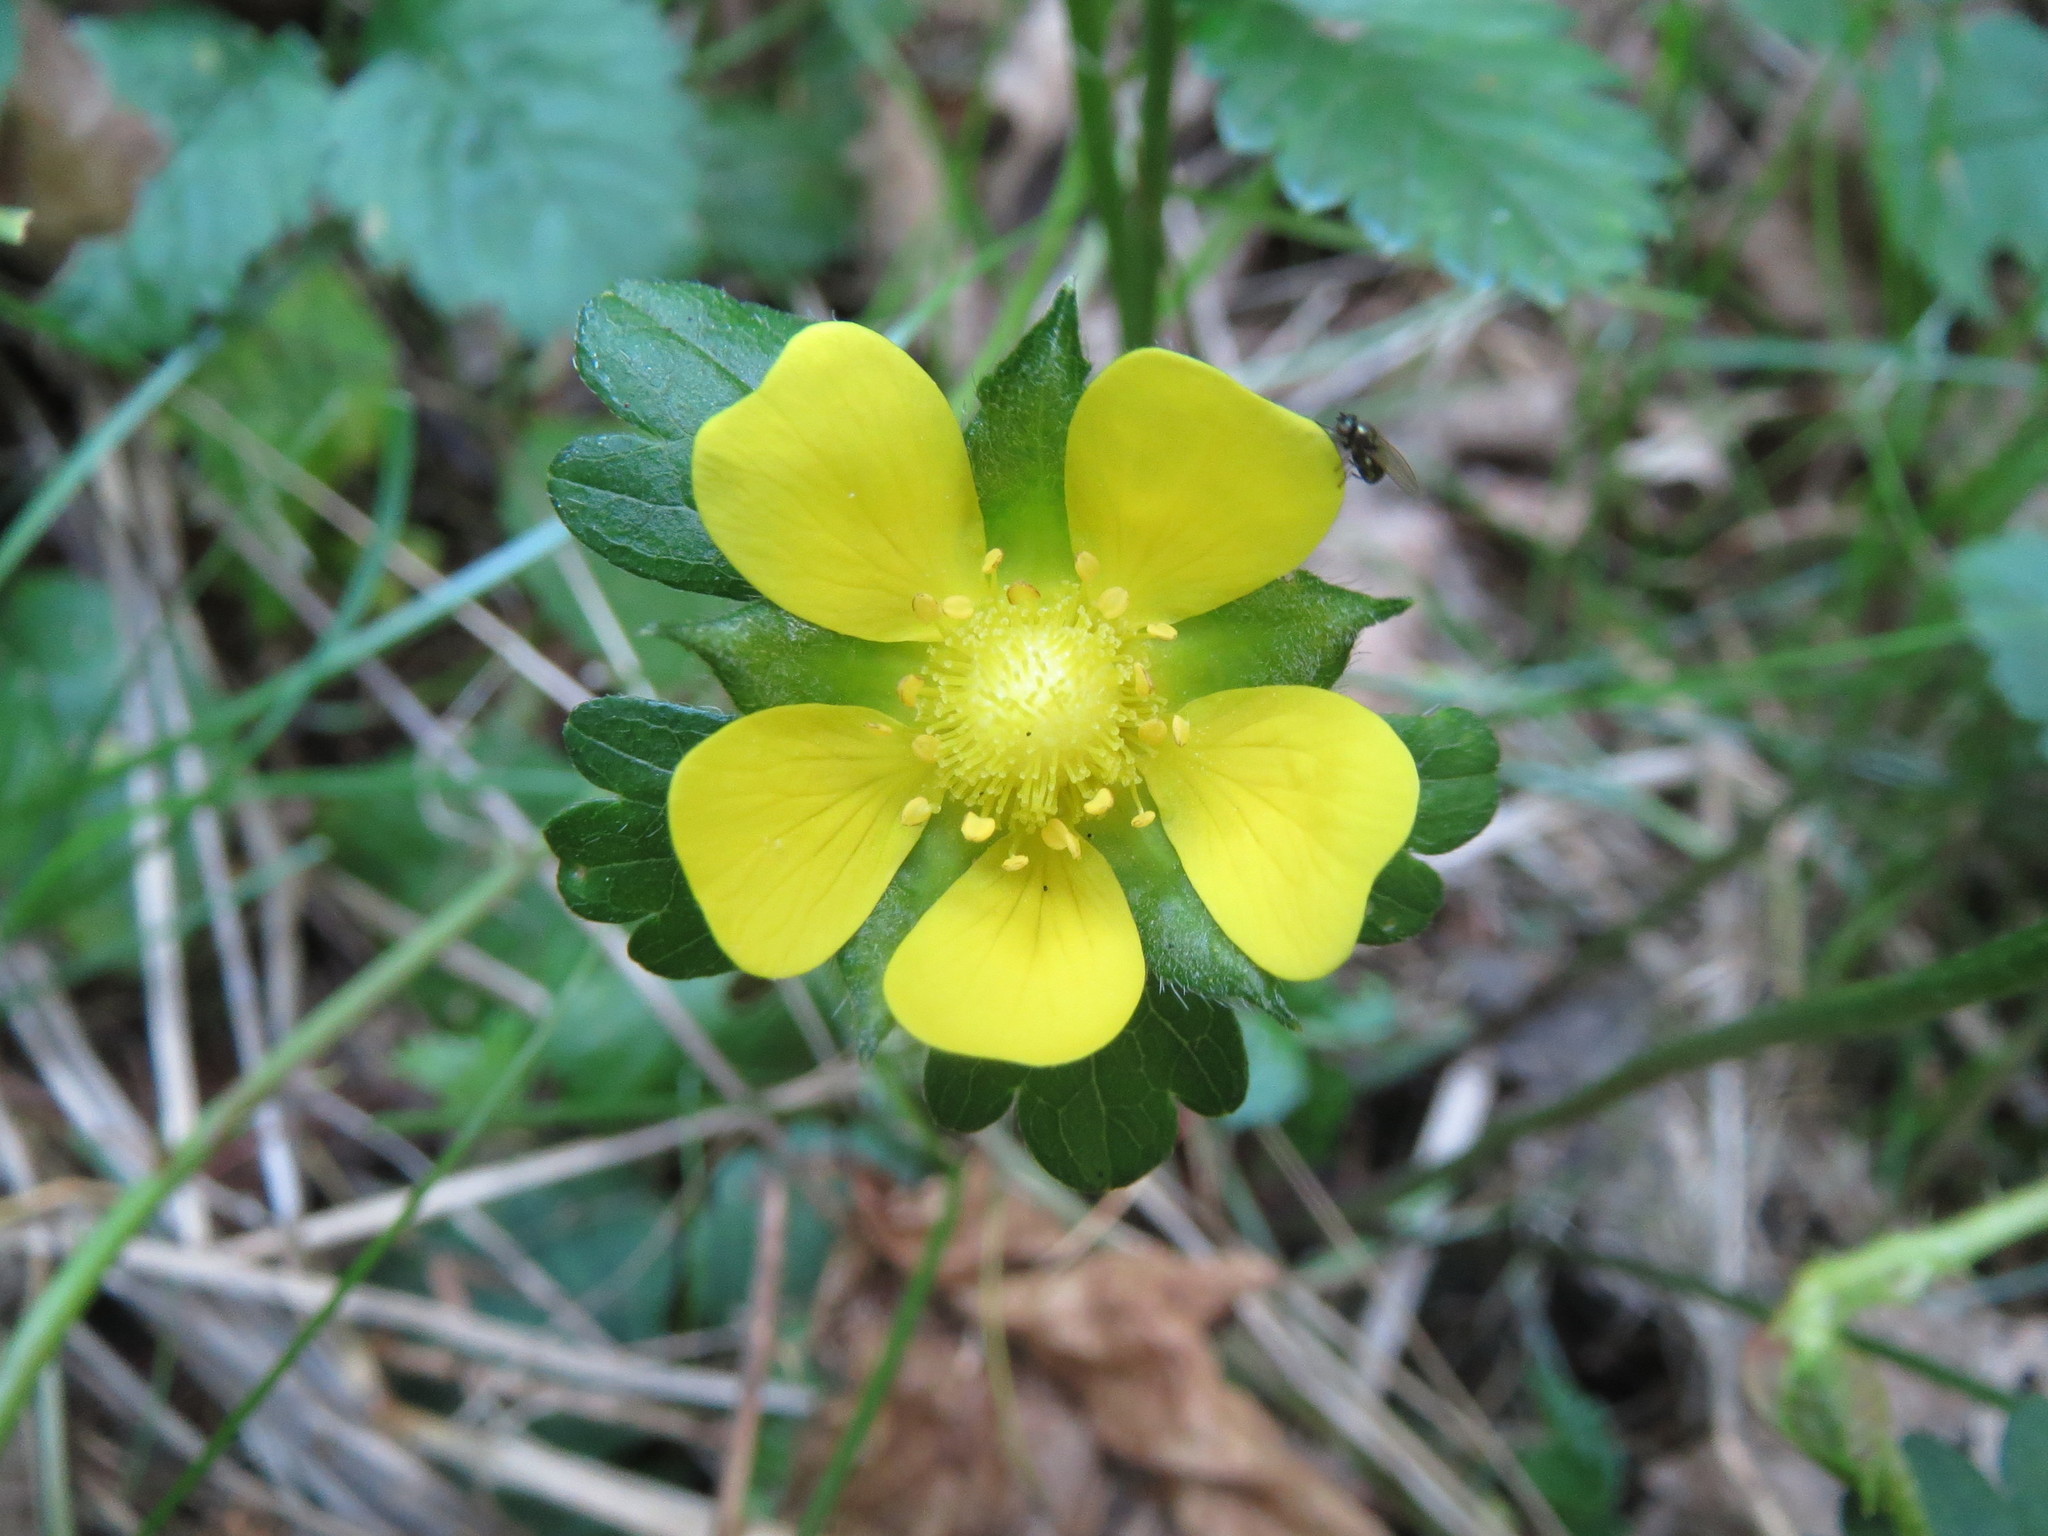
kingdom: Plantae
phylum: Tracheophyta
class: Magnoliopsida
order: Rosales
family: Rosaceae
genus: Potentilla
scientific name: Potentilla indica
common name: Yellow-flowered strawberry
